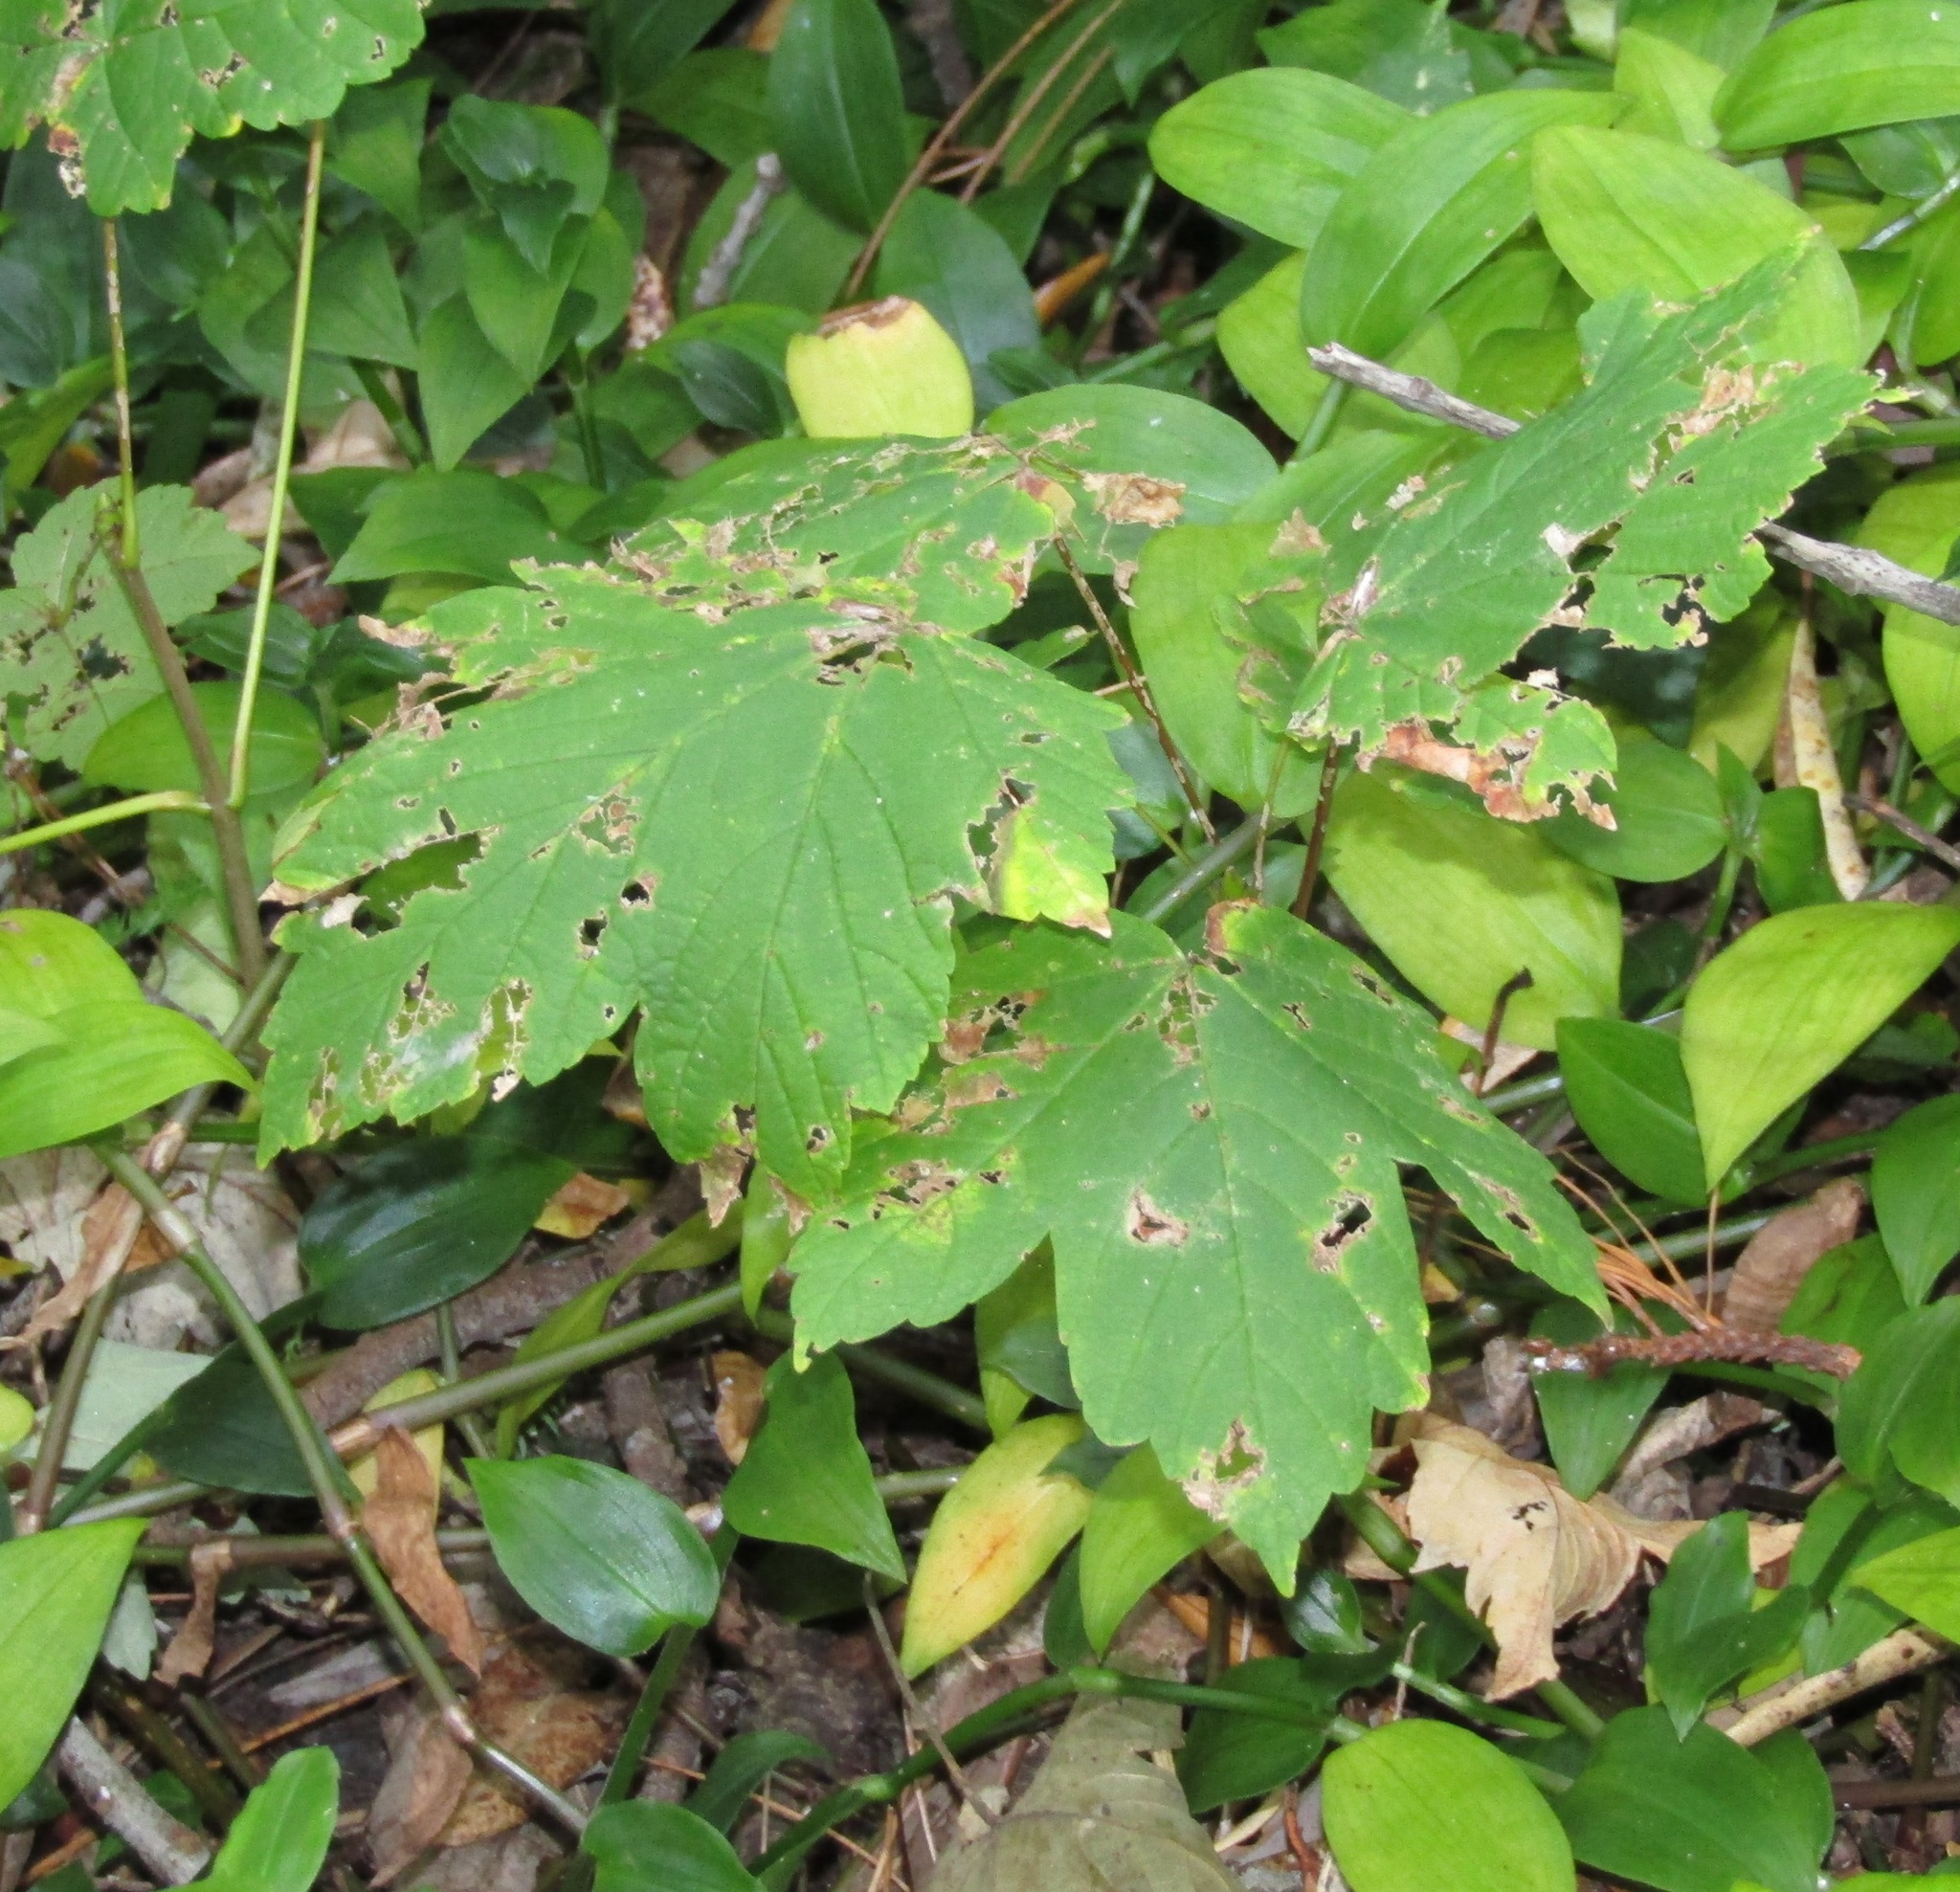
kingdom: Plantae
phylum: Tracheophyta
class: Magnoliopsida
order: Sapindales
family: Sapindaceae
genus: Acer
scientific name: Acer pseudoplatanus
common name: Sycamore
